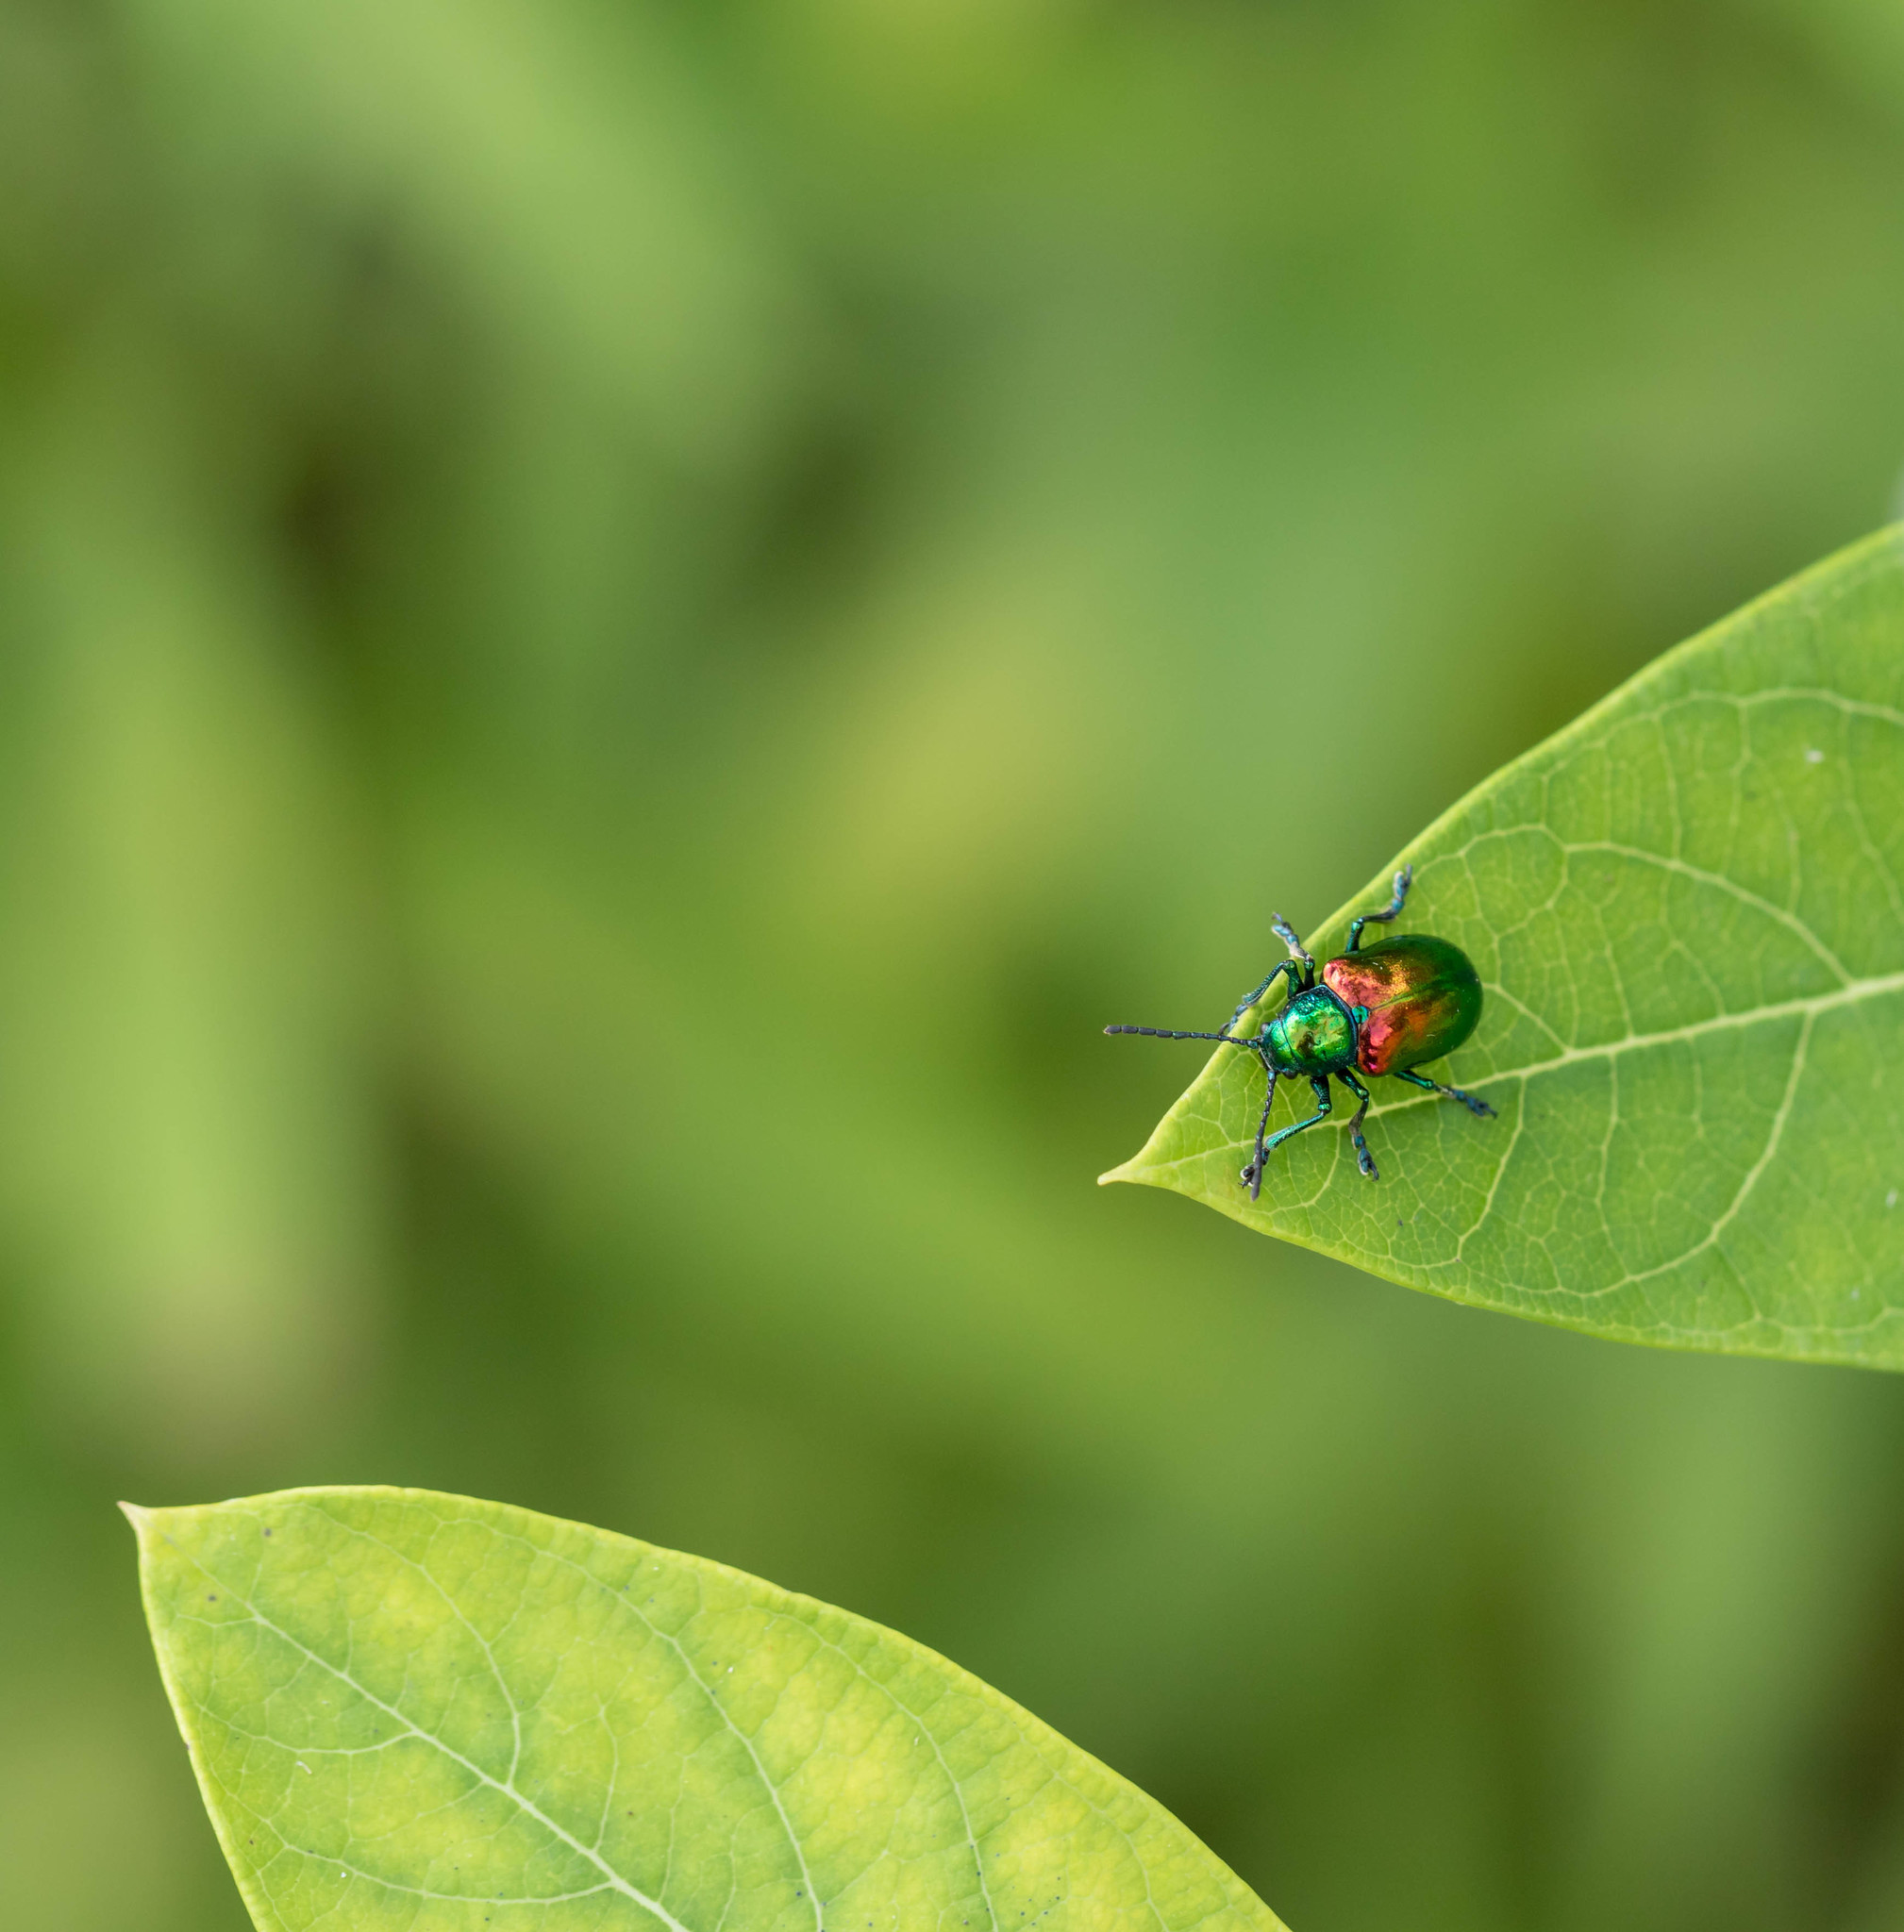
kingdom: Animalia
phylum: Arthropoda
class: Insecta
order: Coleoptera
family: Chrysomelidae
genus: Chrysochus
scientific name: Chrysochus auratus
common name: Dogbane leaf beetle
